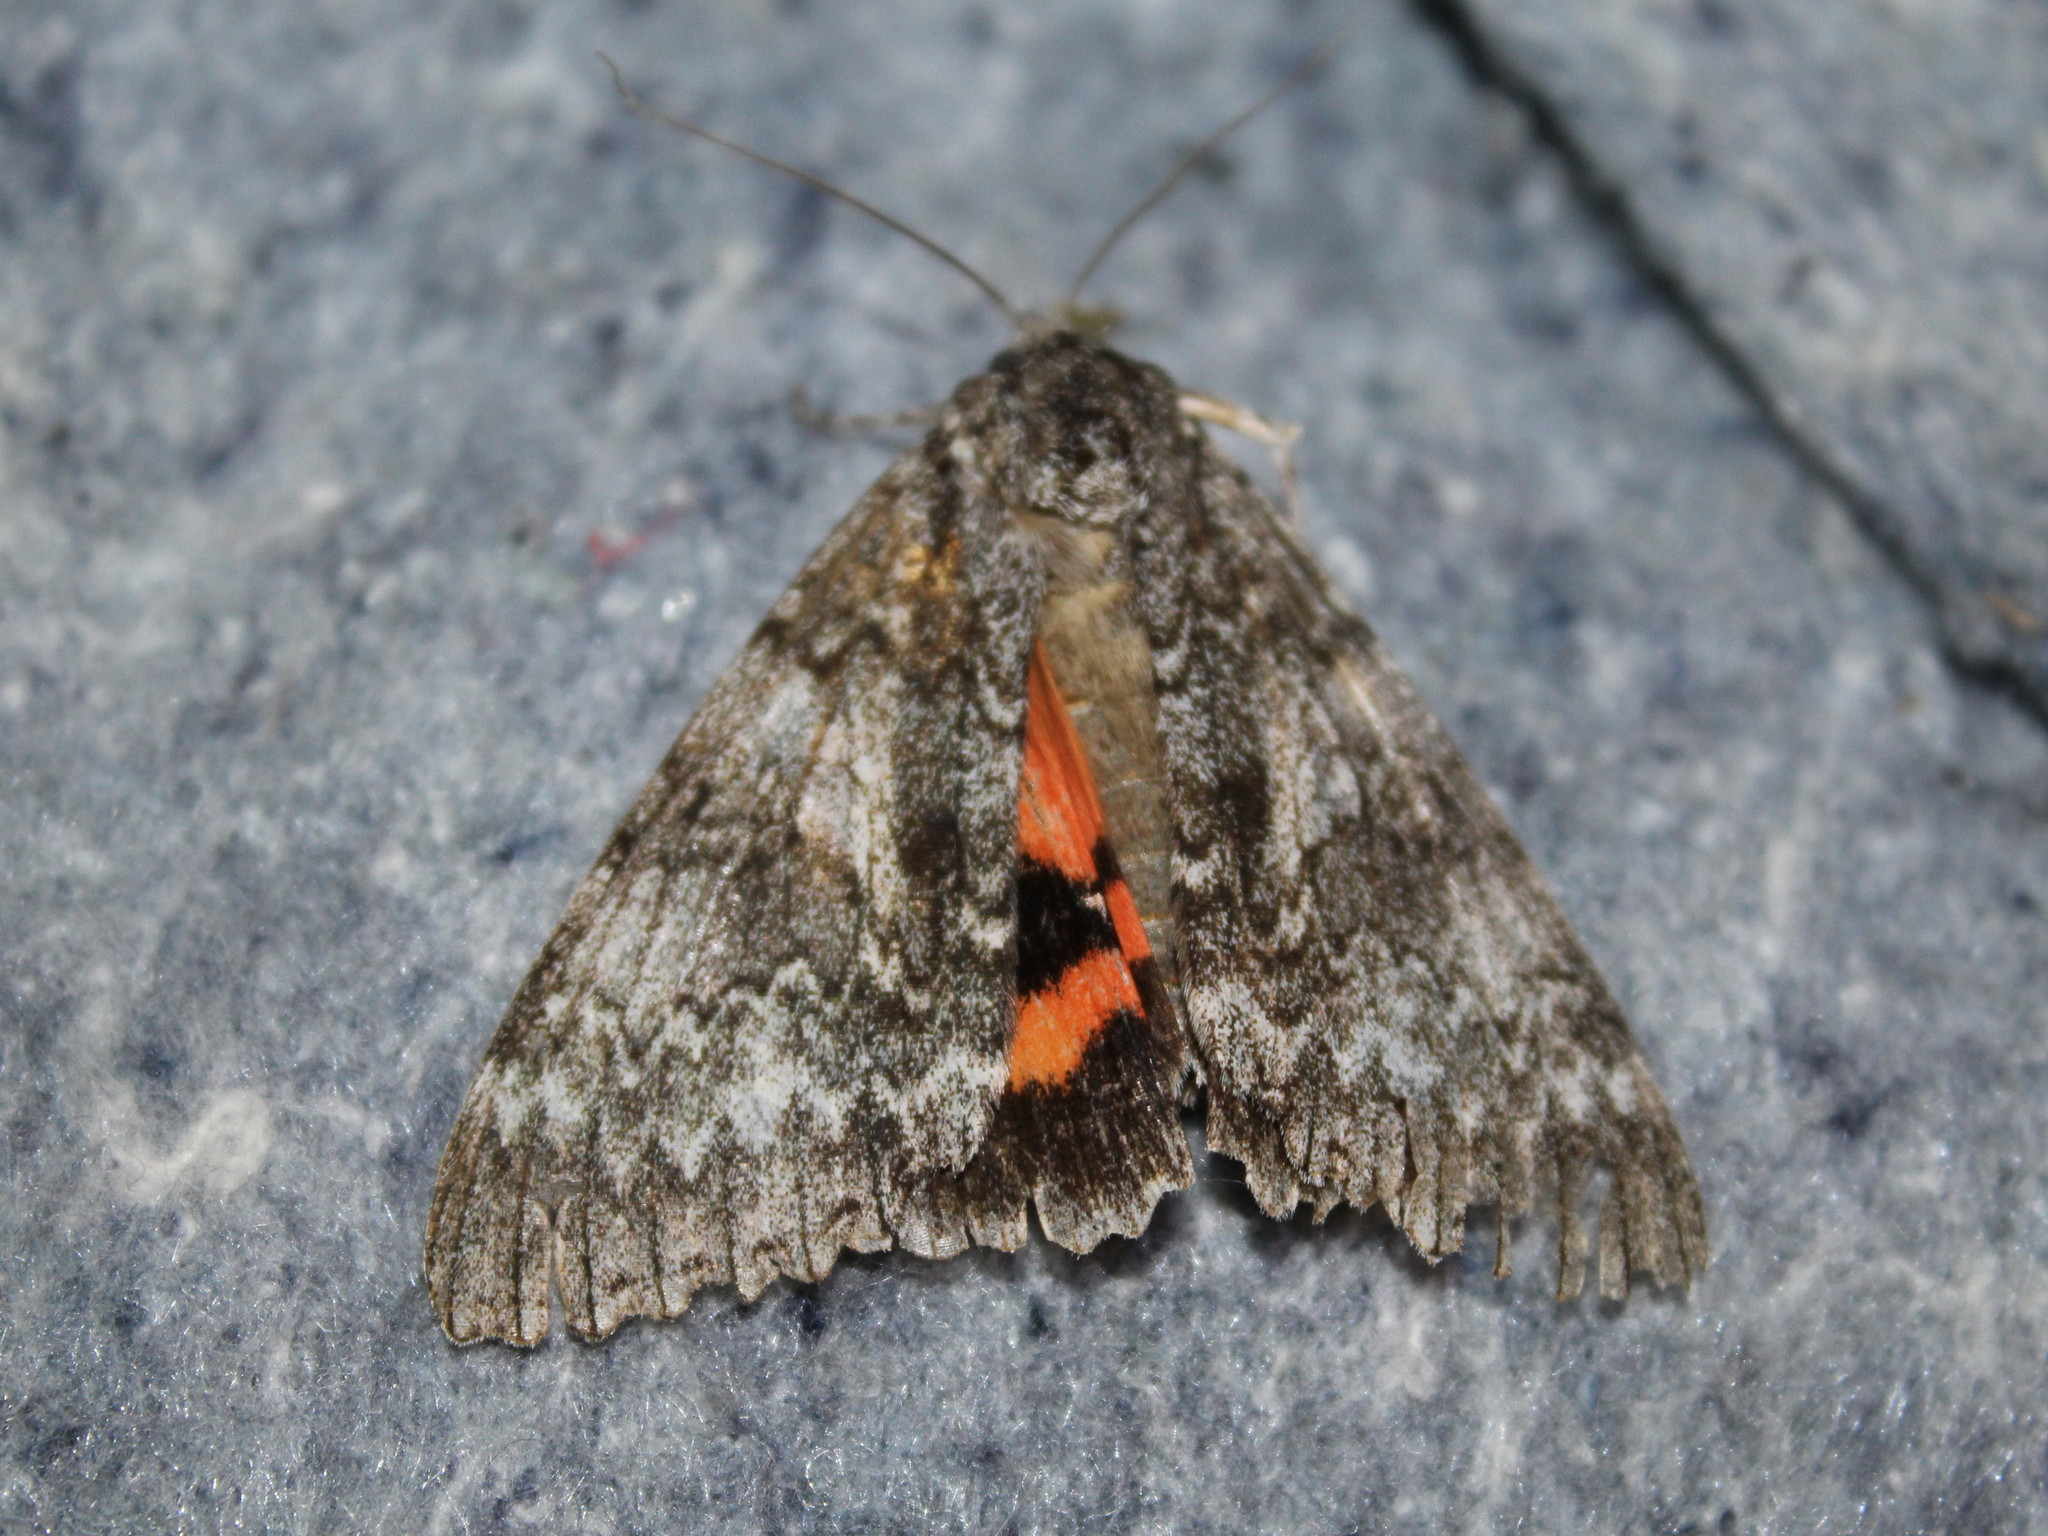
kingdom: Animalia
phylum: Arthropoda
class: Insecta
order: Lepidoptera
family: Erebidae
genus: Catocala
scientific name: Catocala unijuga
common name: Once-married underwing
